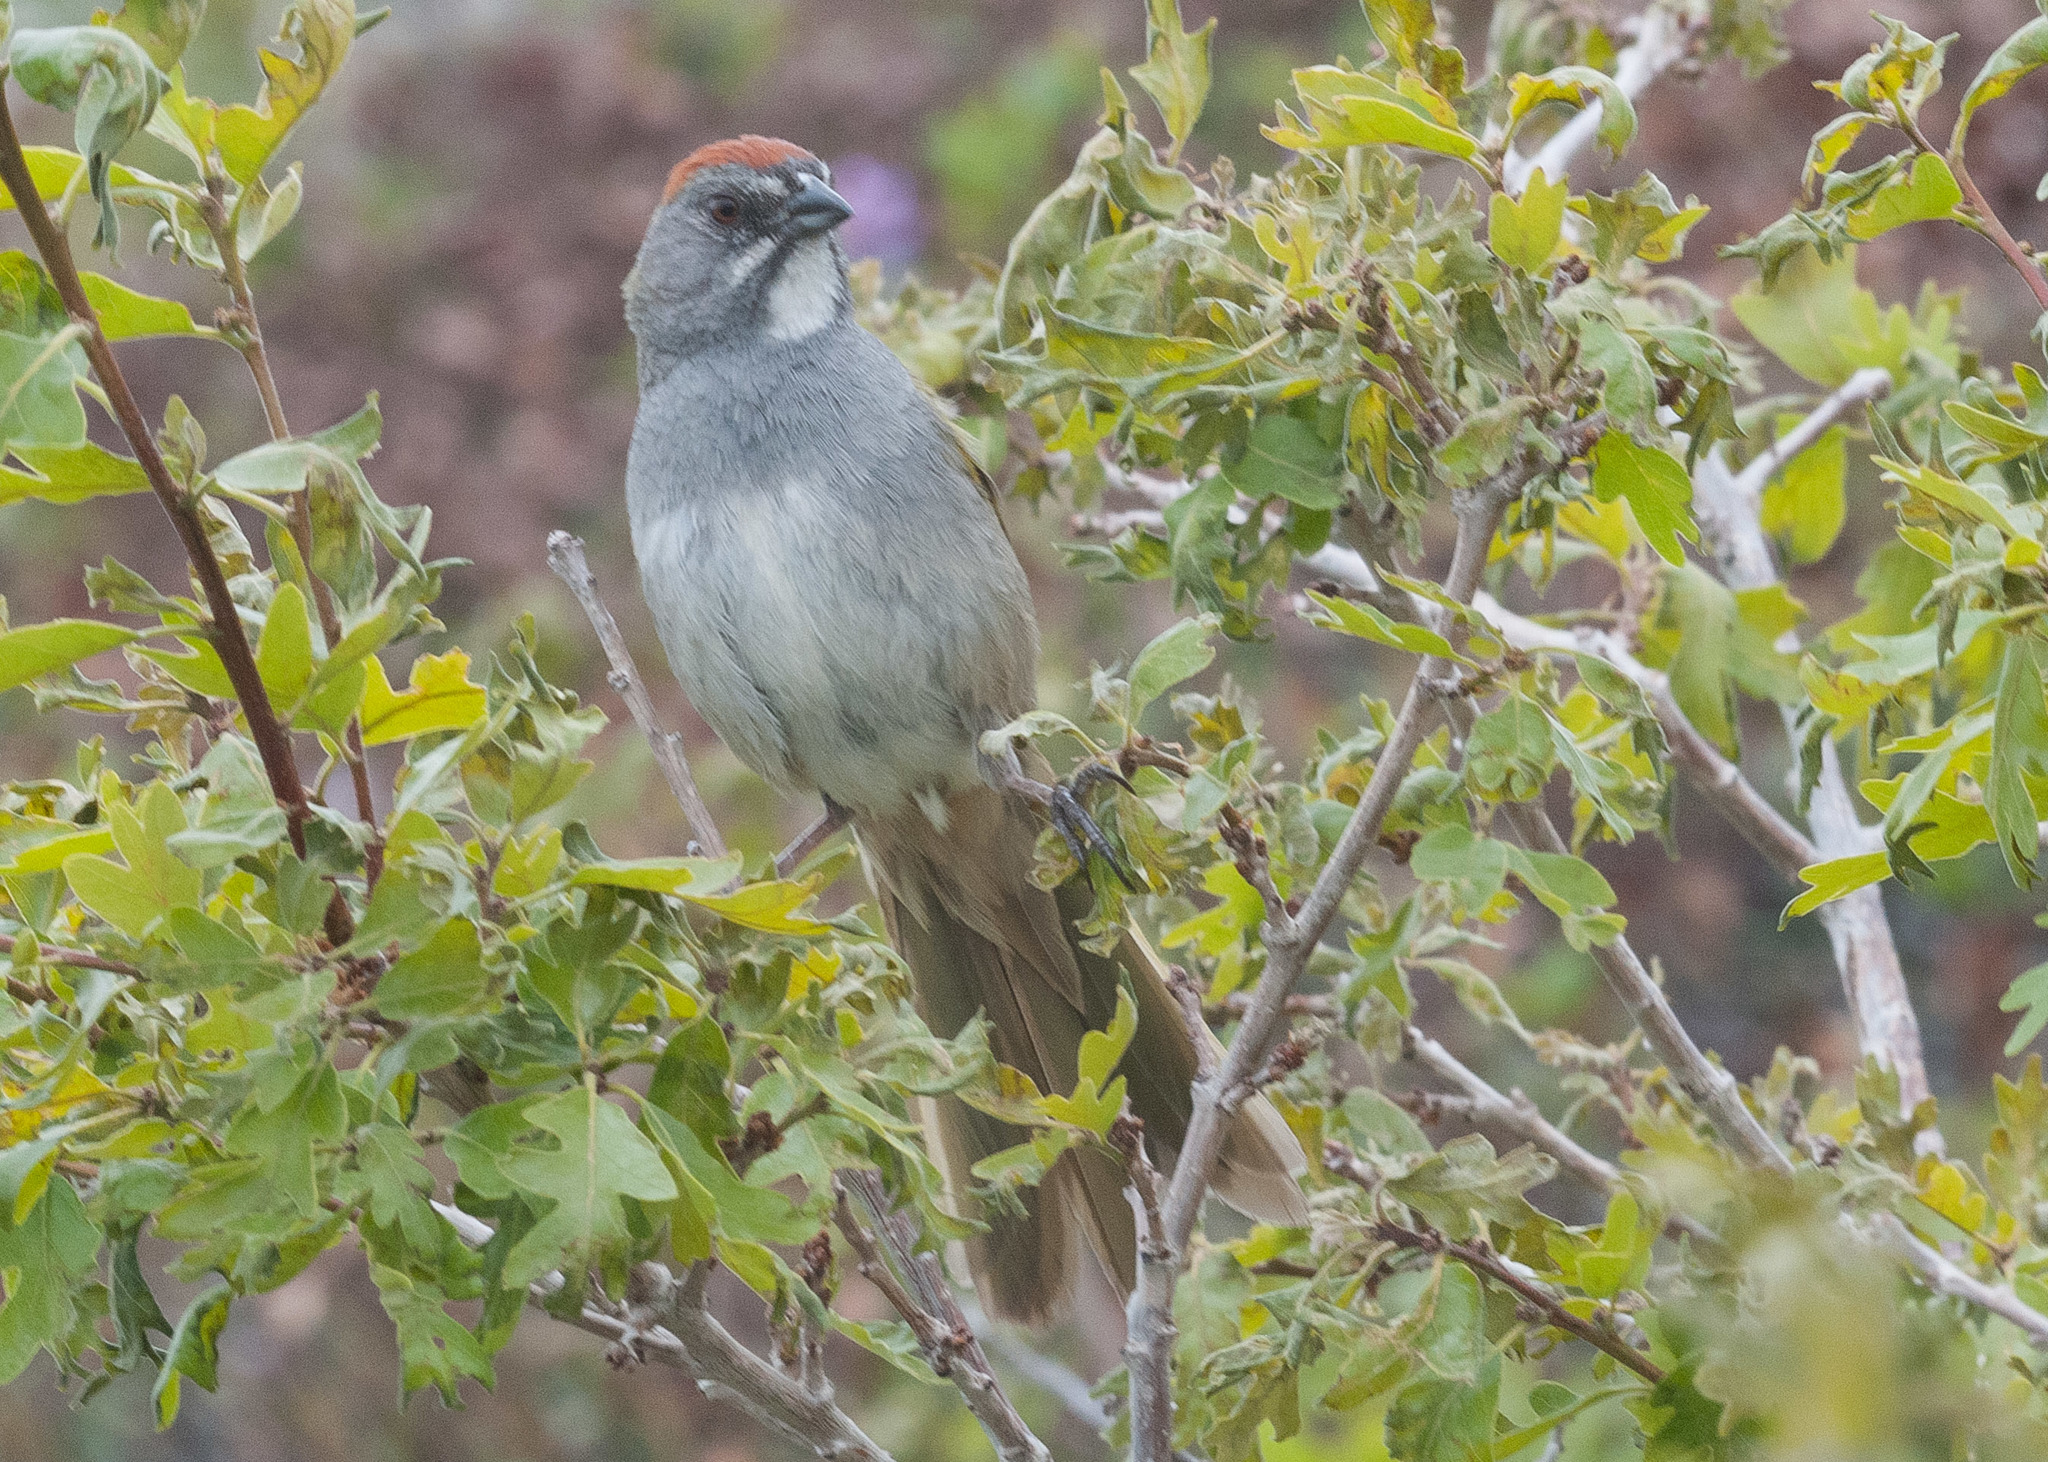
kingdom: Animalia
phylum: Chordata
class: Aves
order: Passeriformes
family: Passerellidae
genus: Pipilo
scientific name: Pipilo chlorurus
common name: Green-tailed towhee
